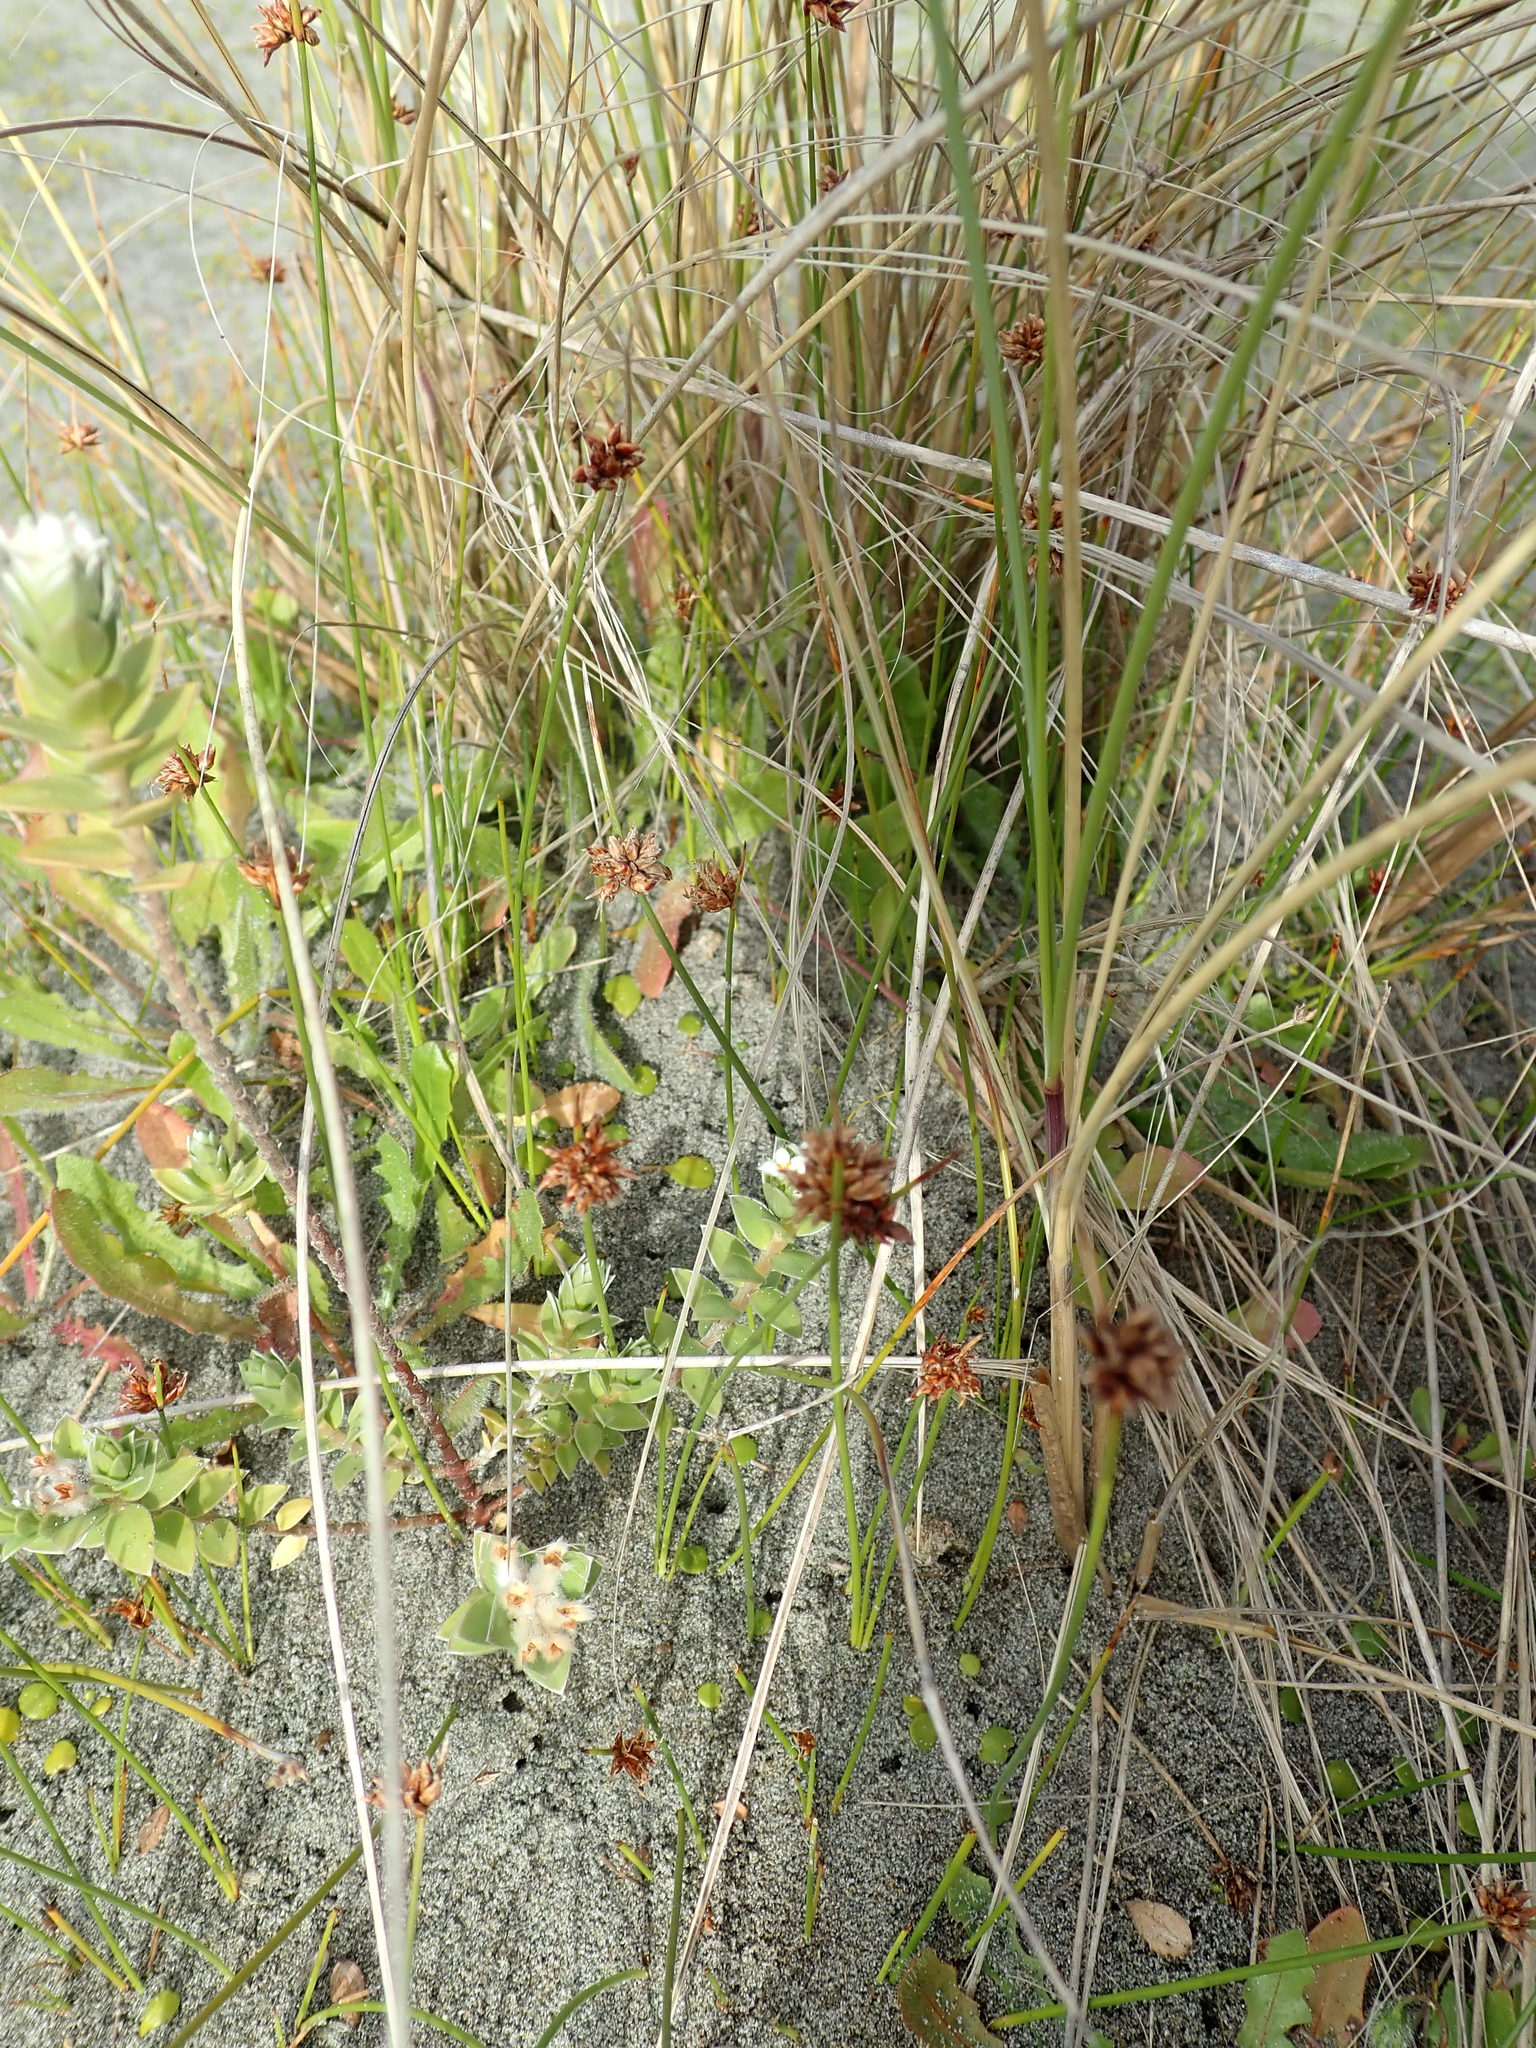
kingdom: Plantae
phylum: Tracheophyta
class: Magnoliopsida
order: Malvales
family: Thymelaeaceae
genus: Pimelea
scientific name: Pimelea villosa
